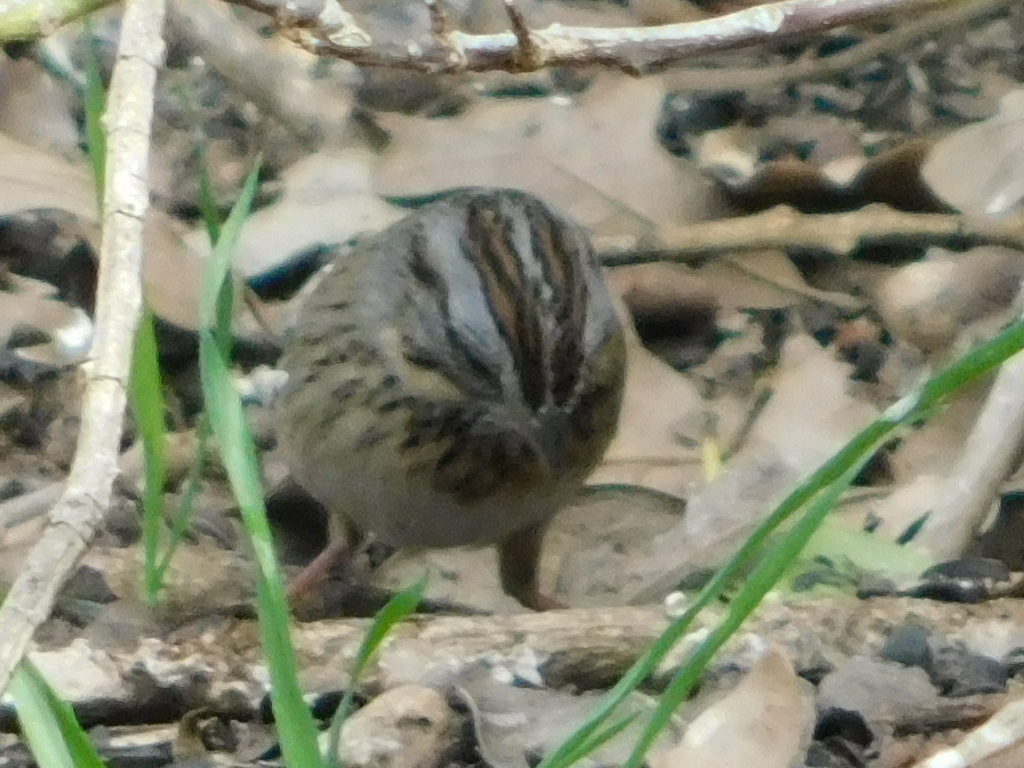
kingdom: Animalia
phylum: Chordata
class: Aves
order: Passeriformes
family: Passerellidae
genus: Melospiza
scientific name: Melospiza lincolnii
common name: Lincoln's sparrow
